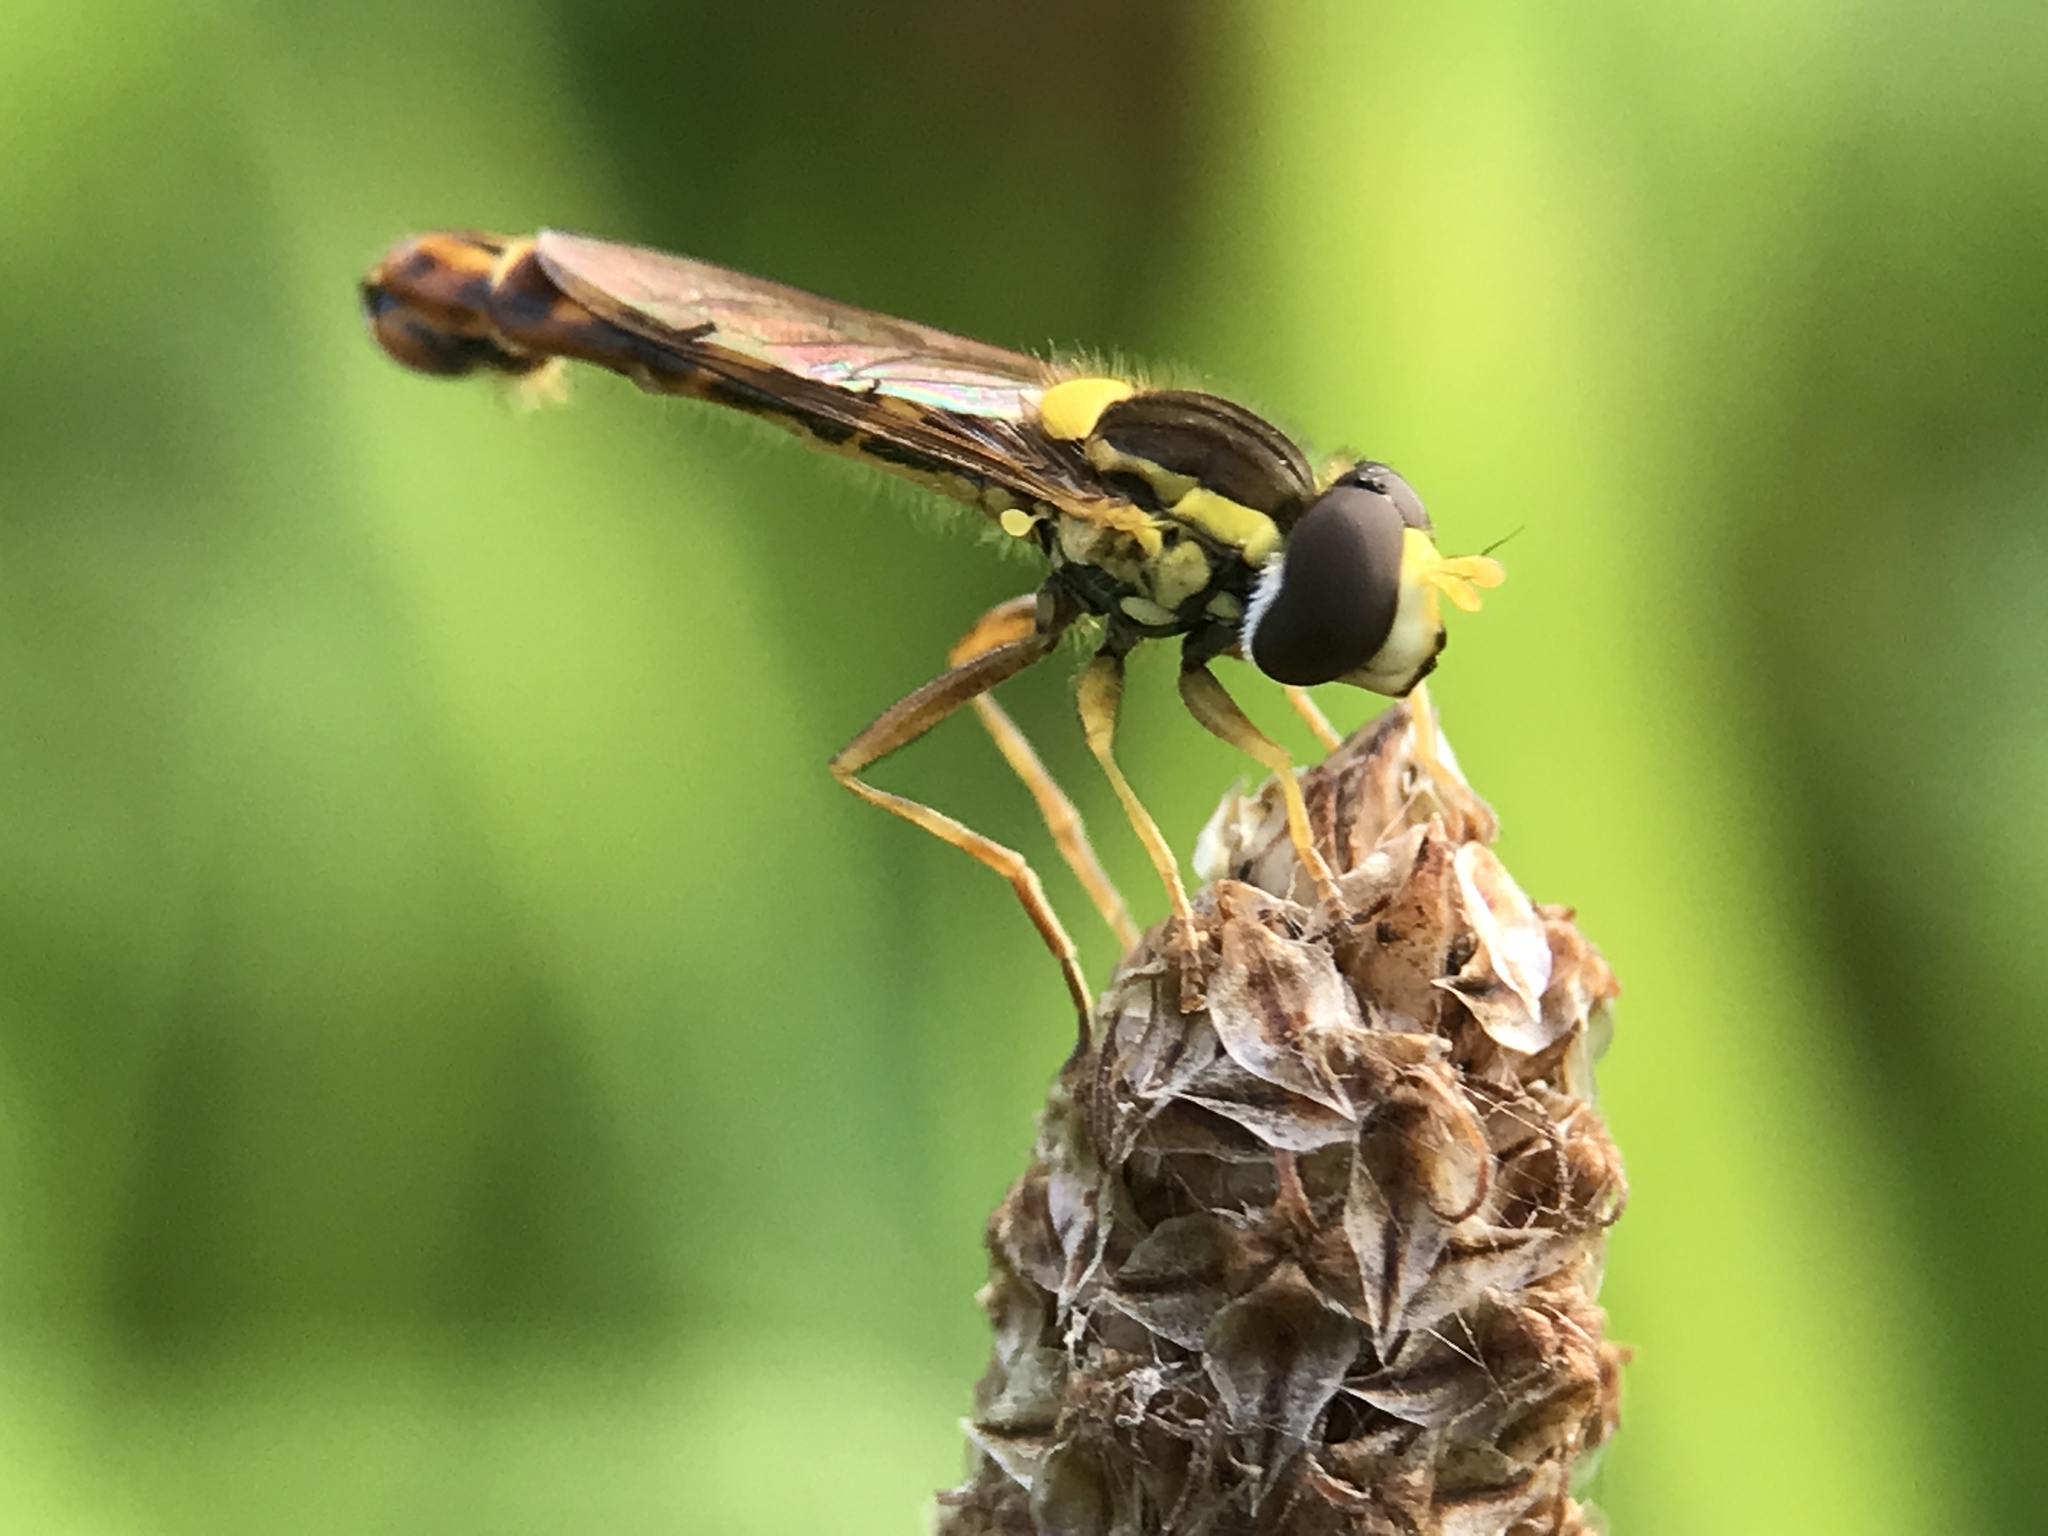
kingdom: Animalia
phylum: Arthropoda
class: Insecta
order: Diptera
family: Syrphidae
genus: Sphaerophoria
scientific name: Sphaerophoria scripta
